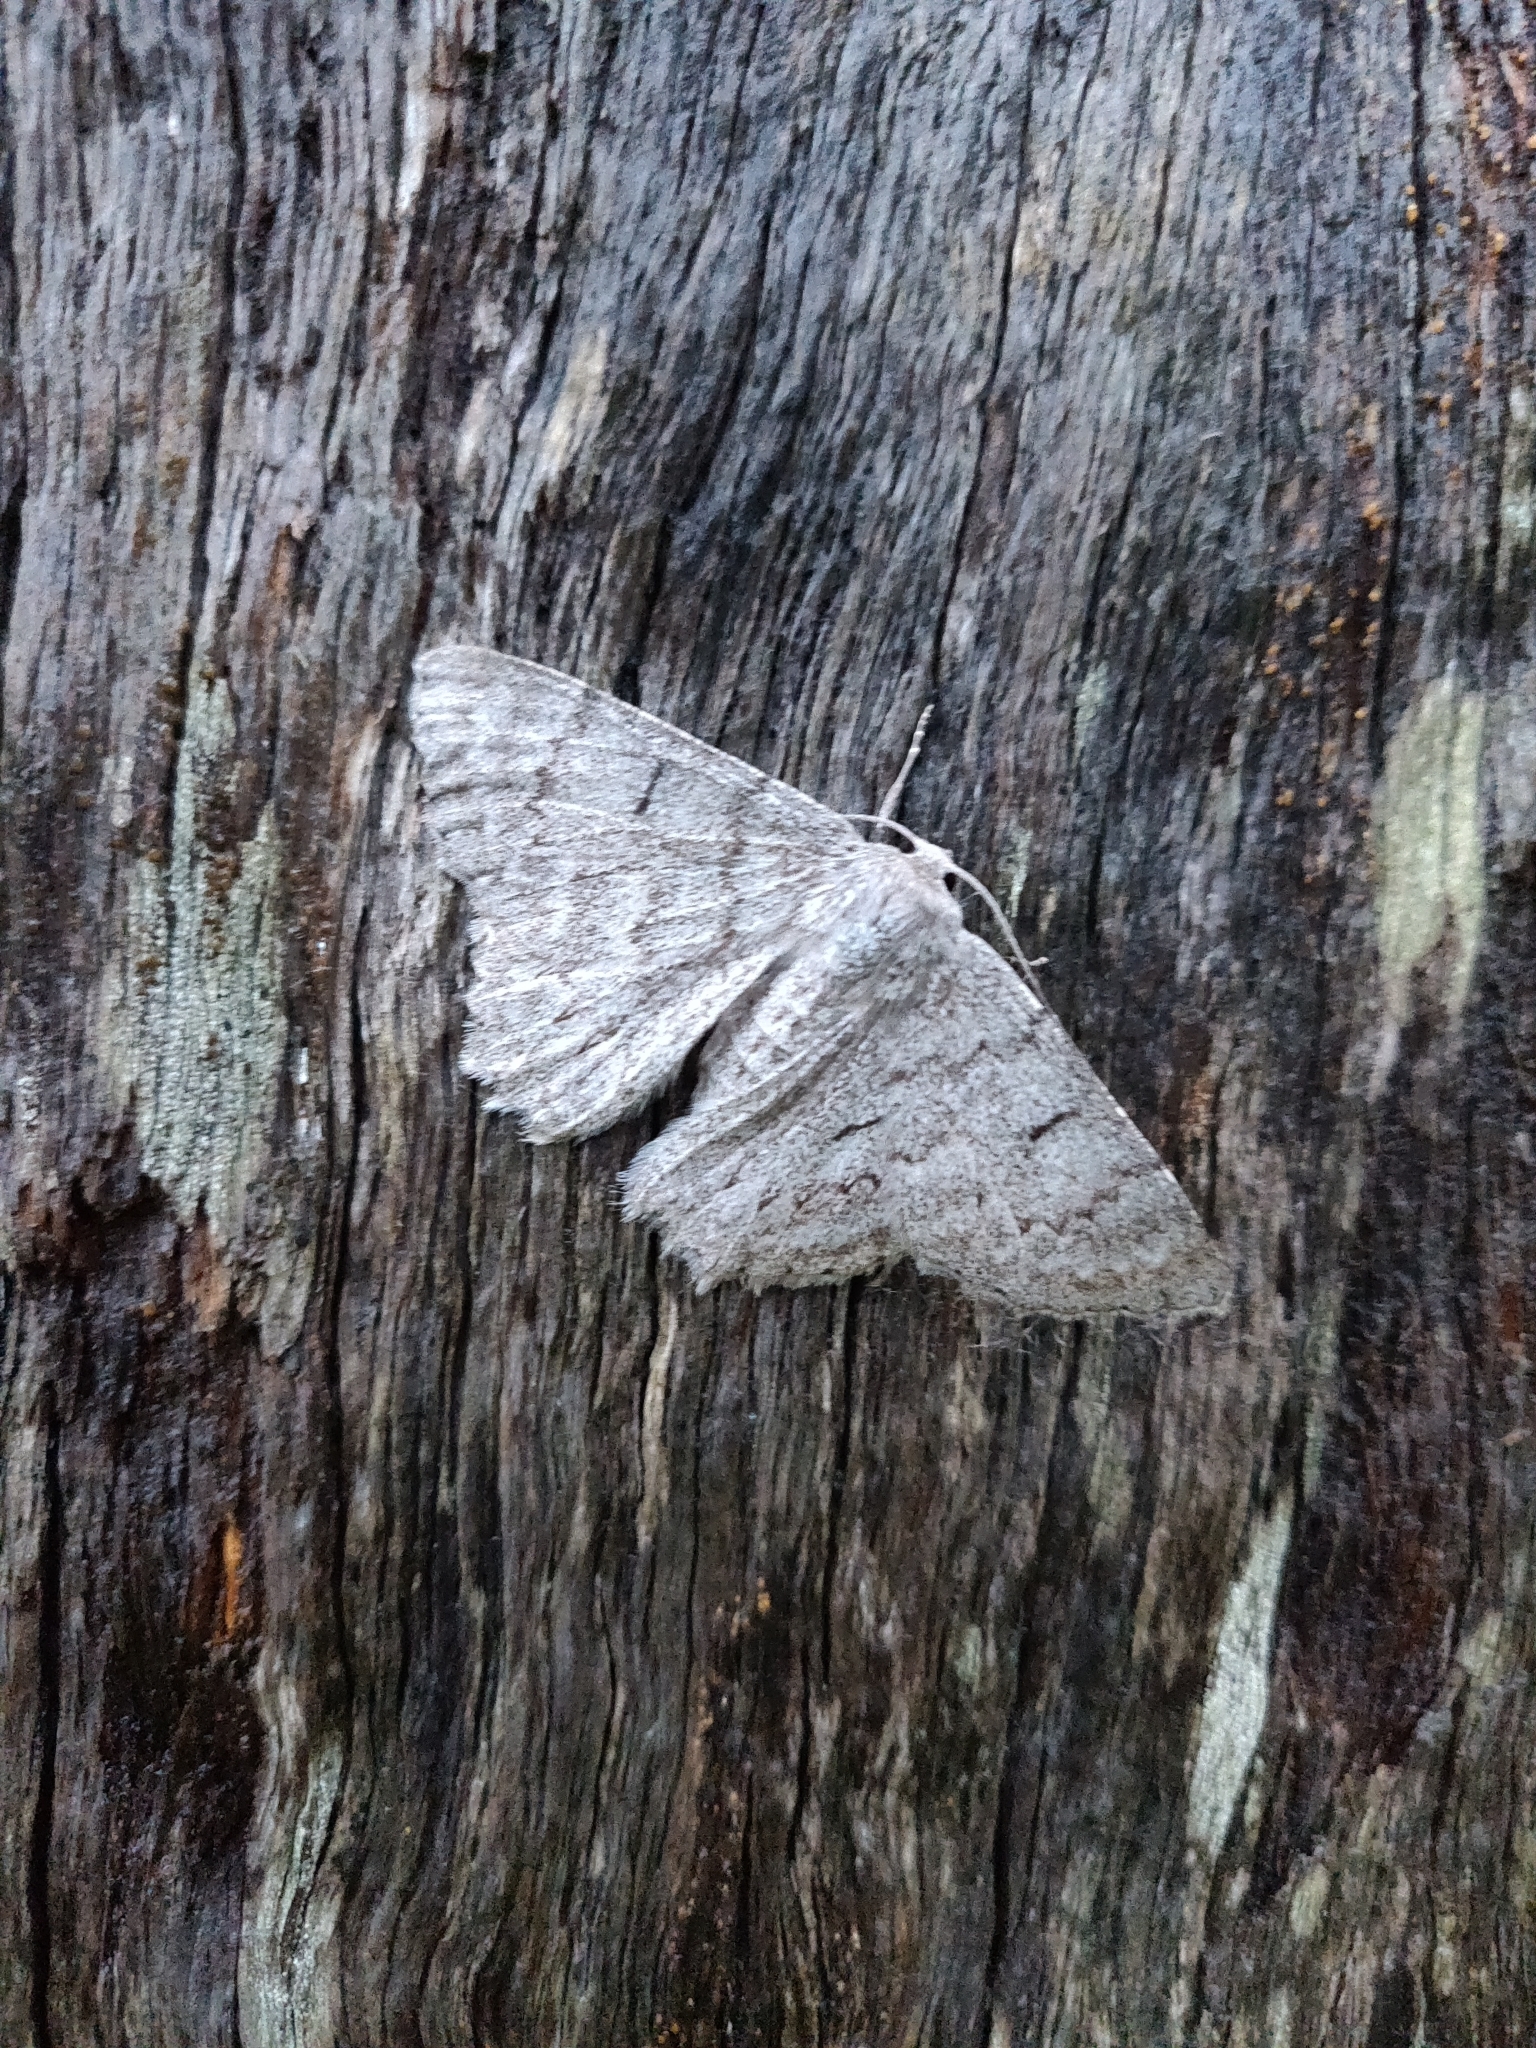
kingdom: Animalia
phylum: Arthropoda
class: Insecta
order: Lepidoptera
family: Geometridae
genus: Crypsiphona
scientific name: Crypsiphona ocultaria
